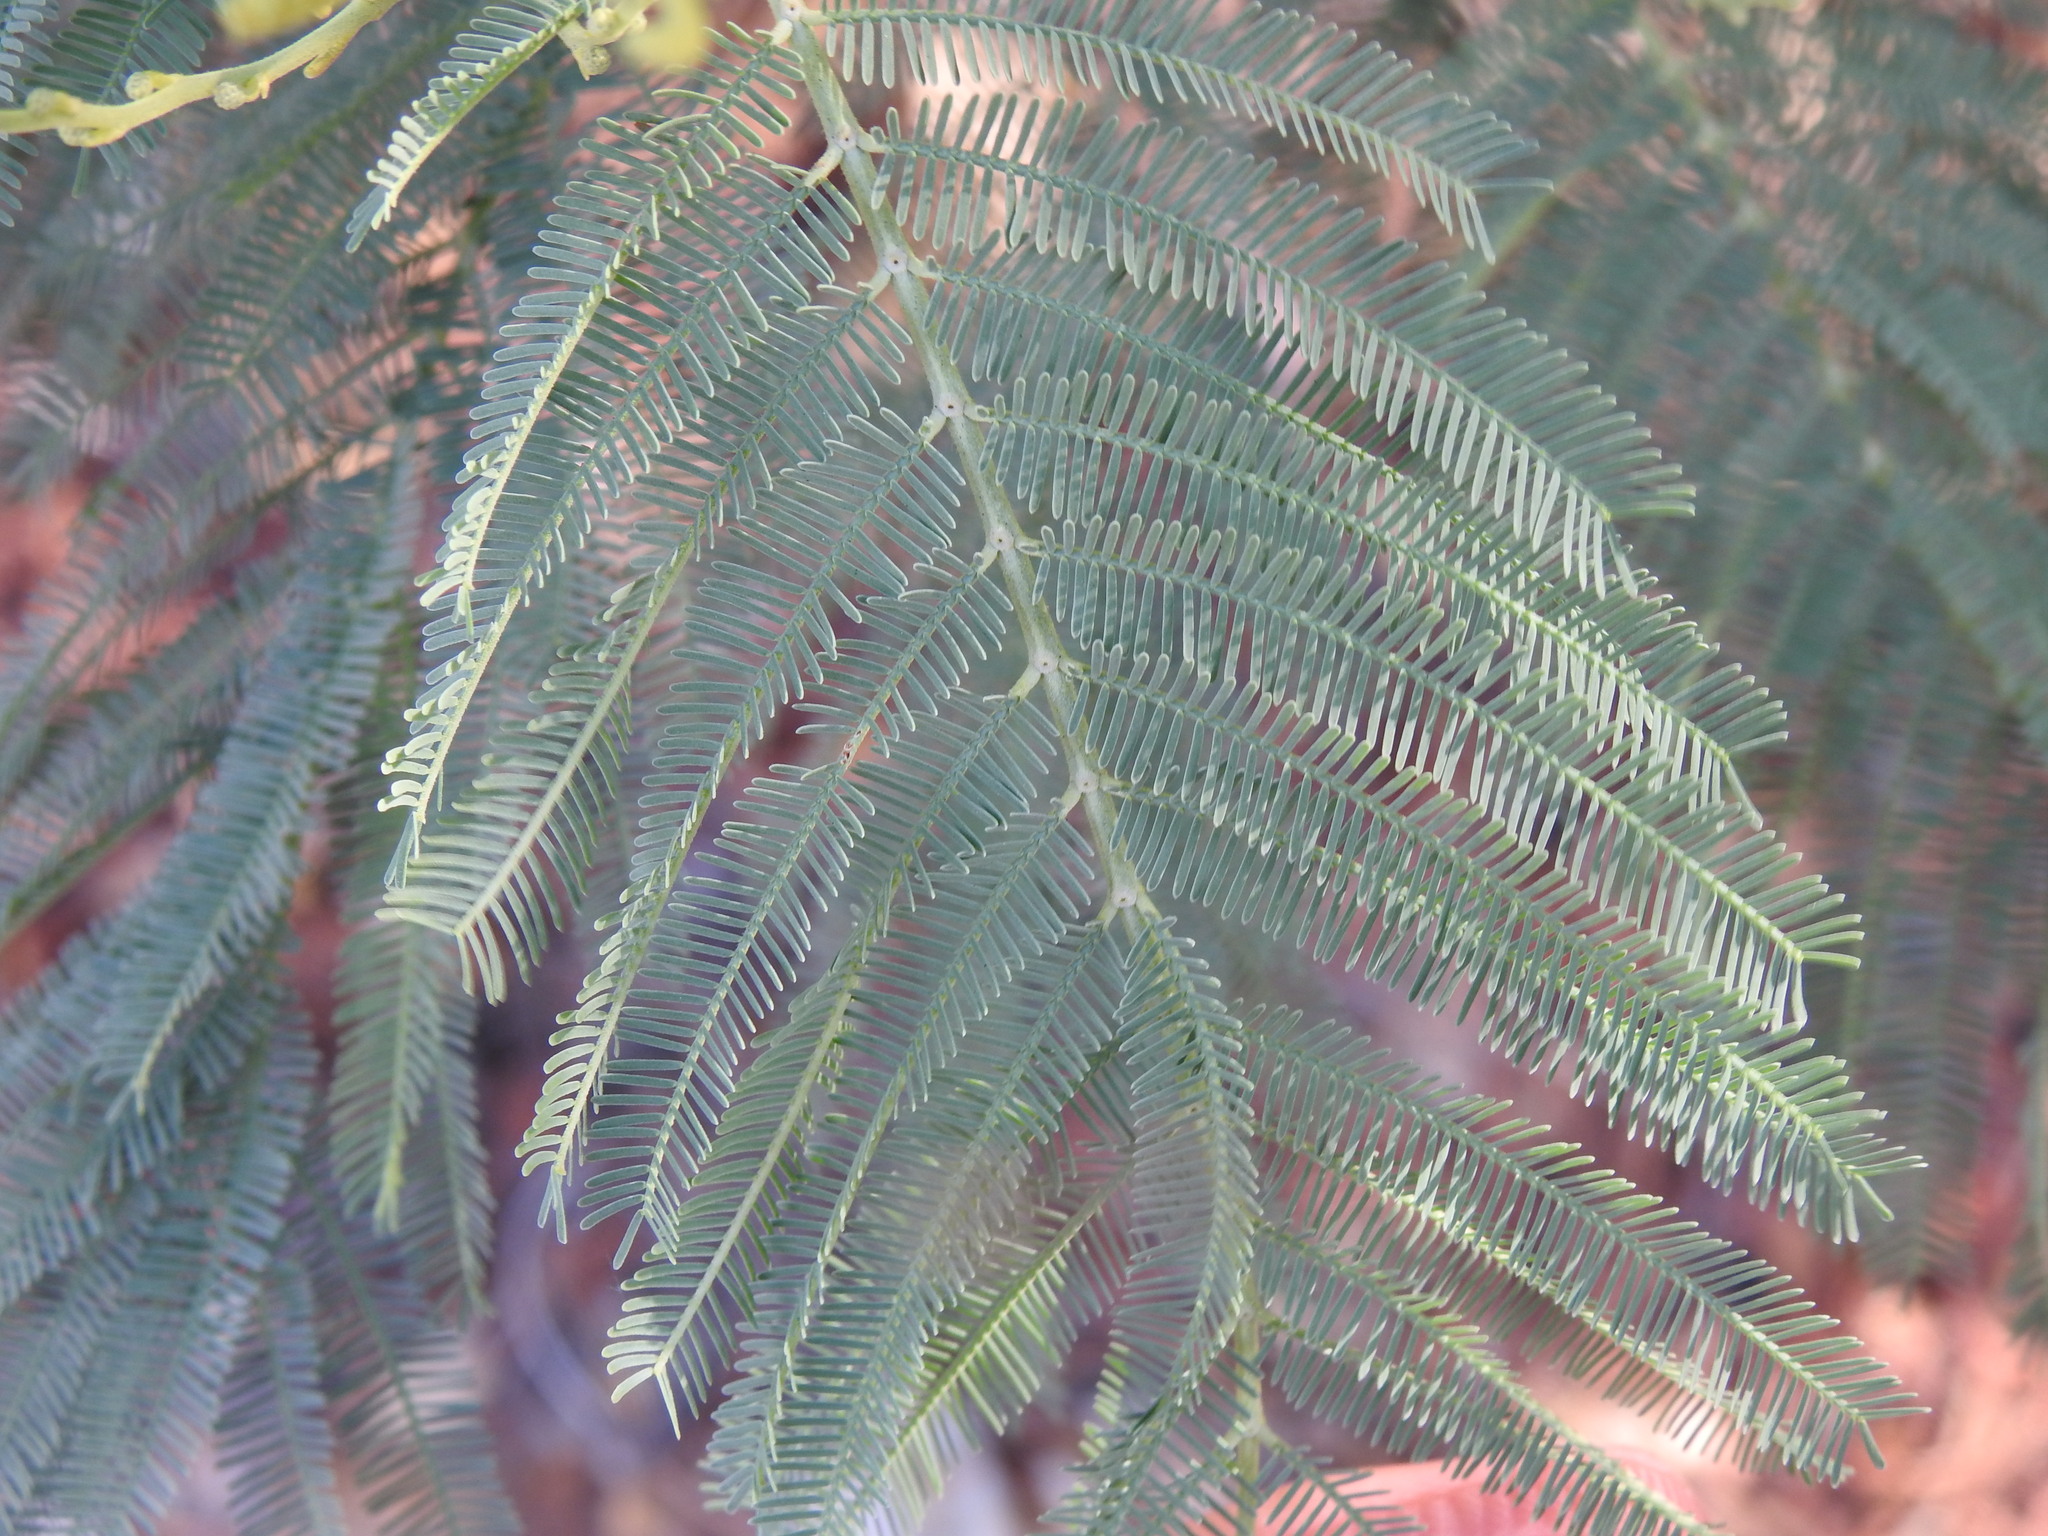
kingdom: Plantae
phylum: Tracheophyta
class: Magnoliopsida
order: Fabales
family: Fabaceae
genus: Acacia
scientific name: Acacia dealbata
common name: Silver wattle
